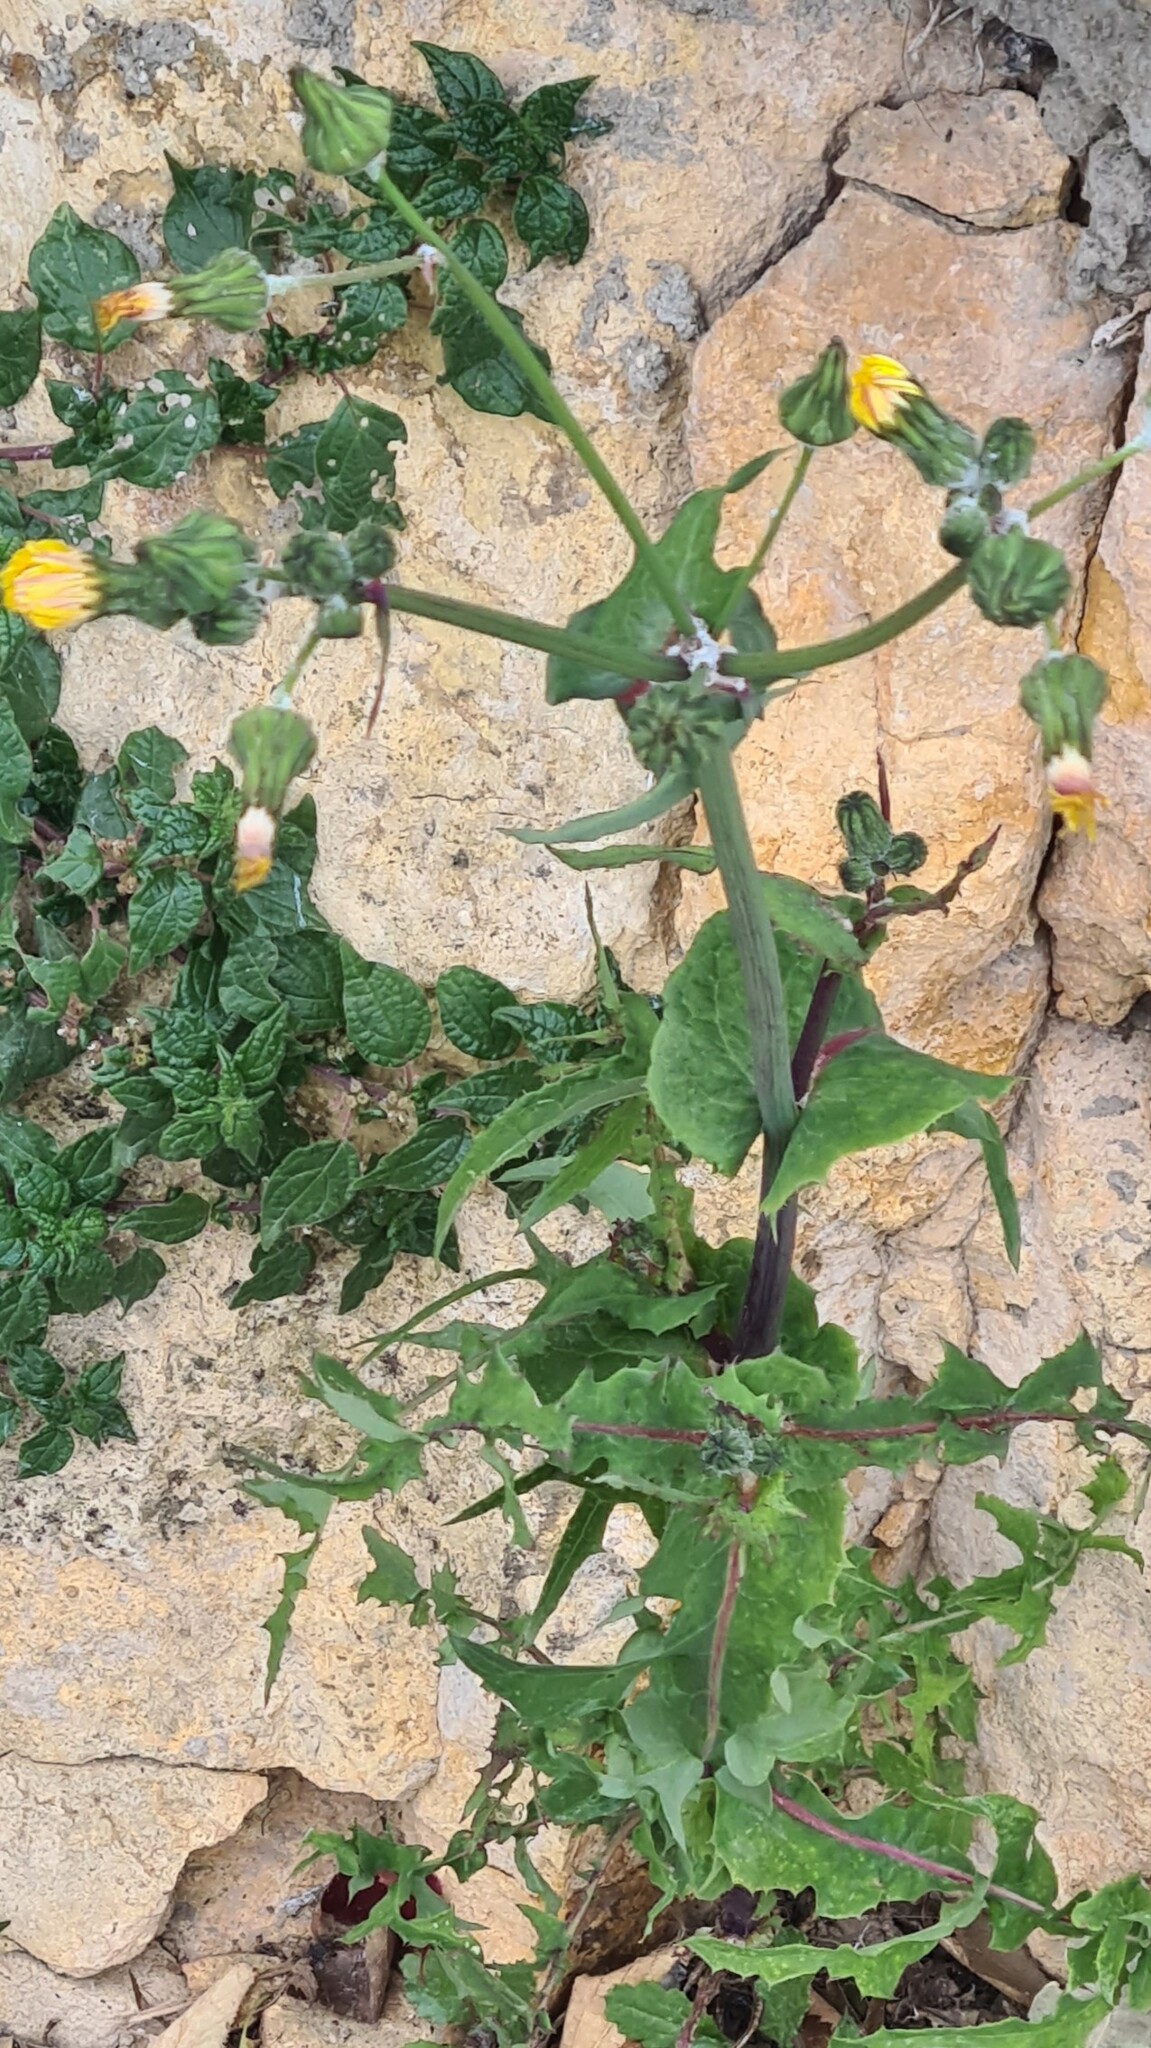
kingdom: Plantae
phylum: Tracheophyta
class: Magnoliopsida
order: Asterales
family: Asteraceae
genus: Sonchus
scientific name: Sonchus oleraceus
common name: Common sowthistle
